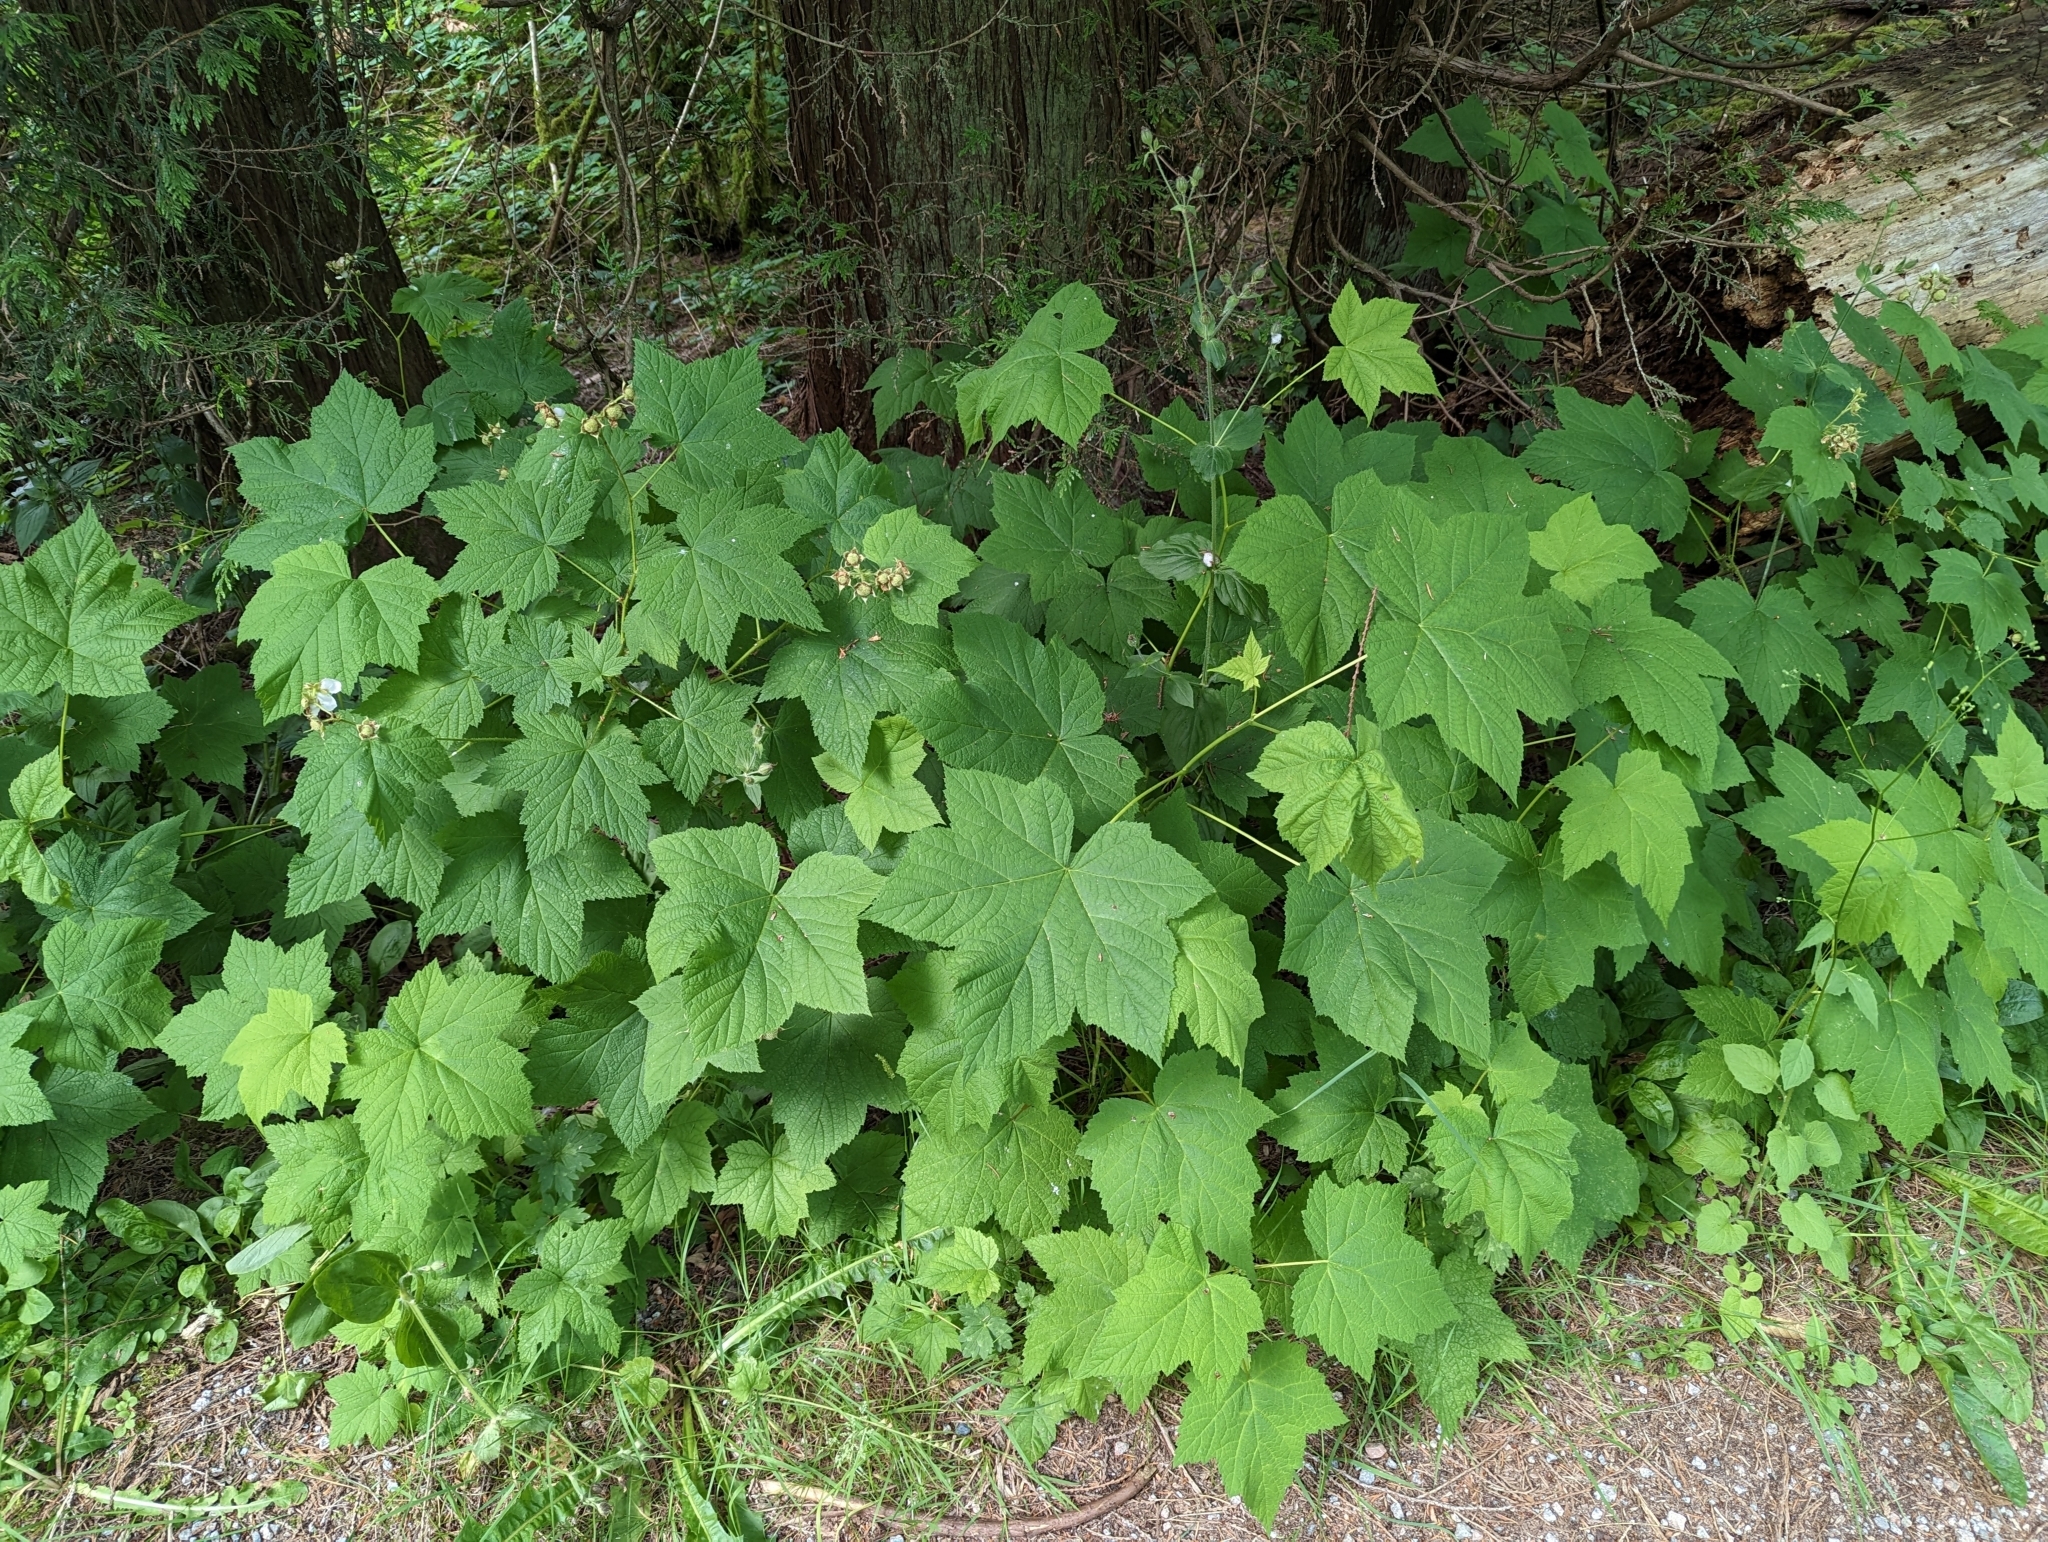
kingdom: Plantae
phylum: Tracheophyta
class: Magnoliopsida
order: Rosales
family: Rosaceae
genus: Rubus
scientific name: Rubus parviflorus
